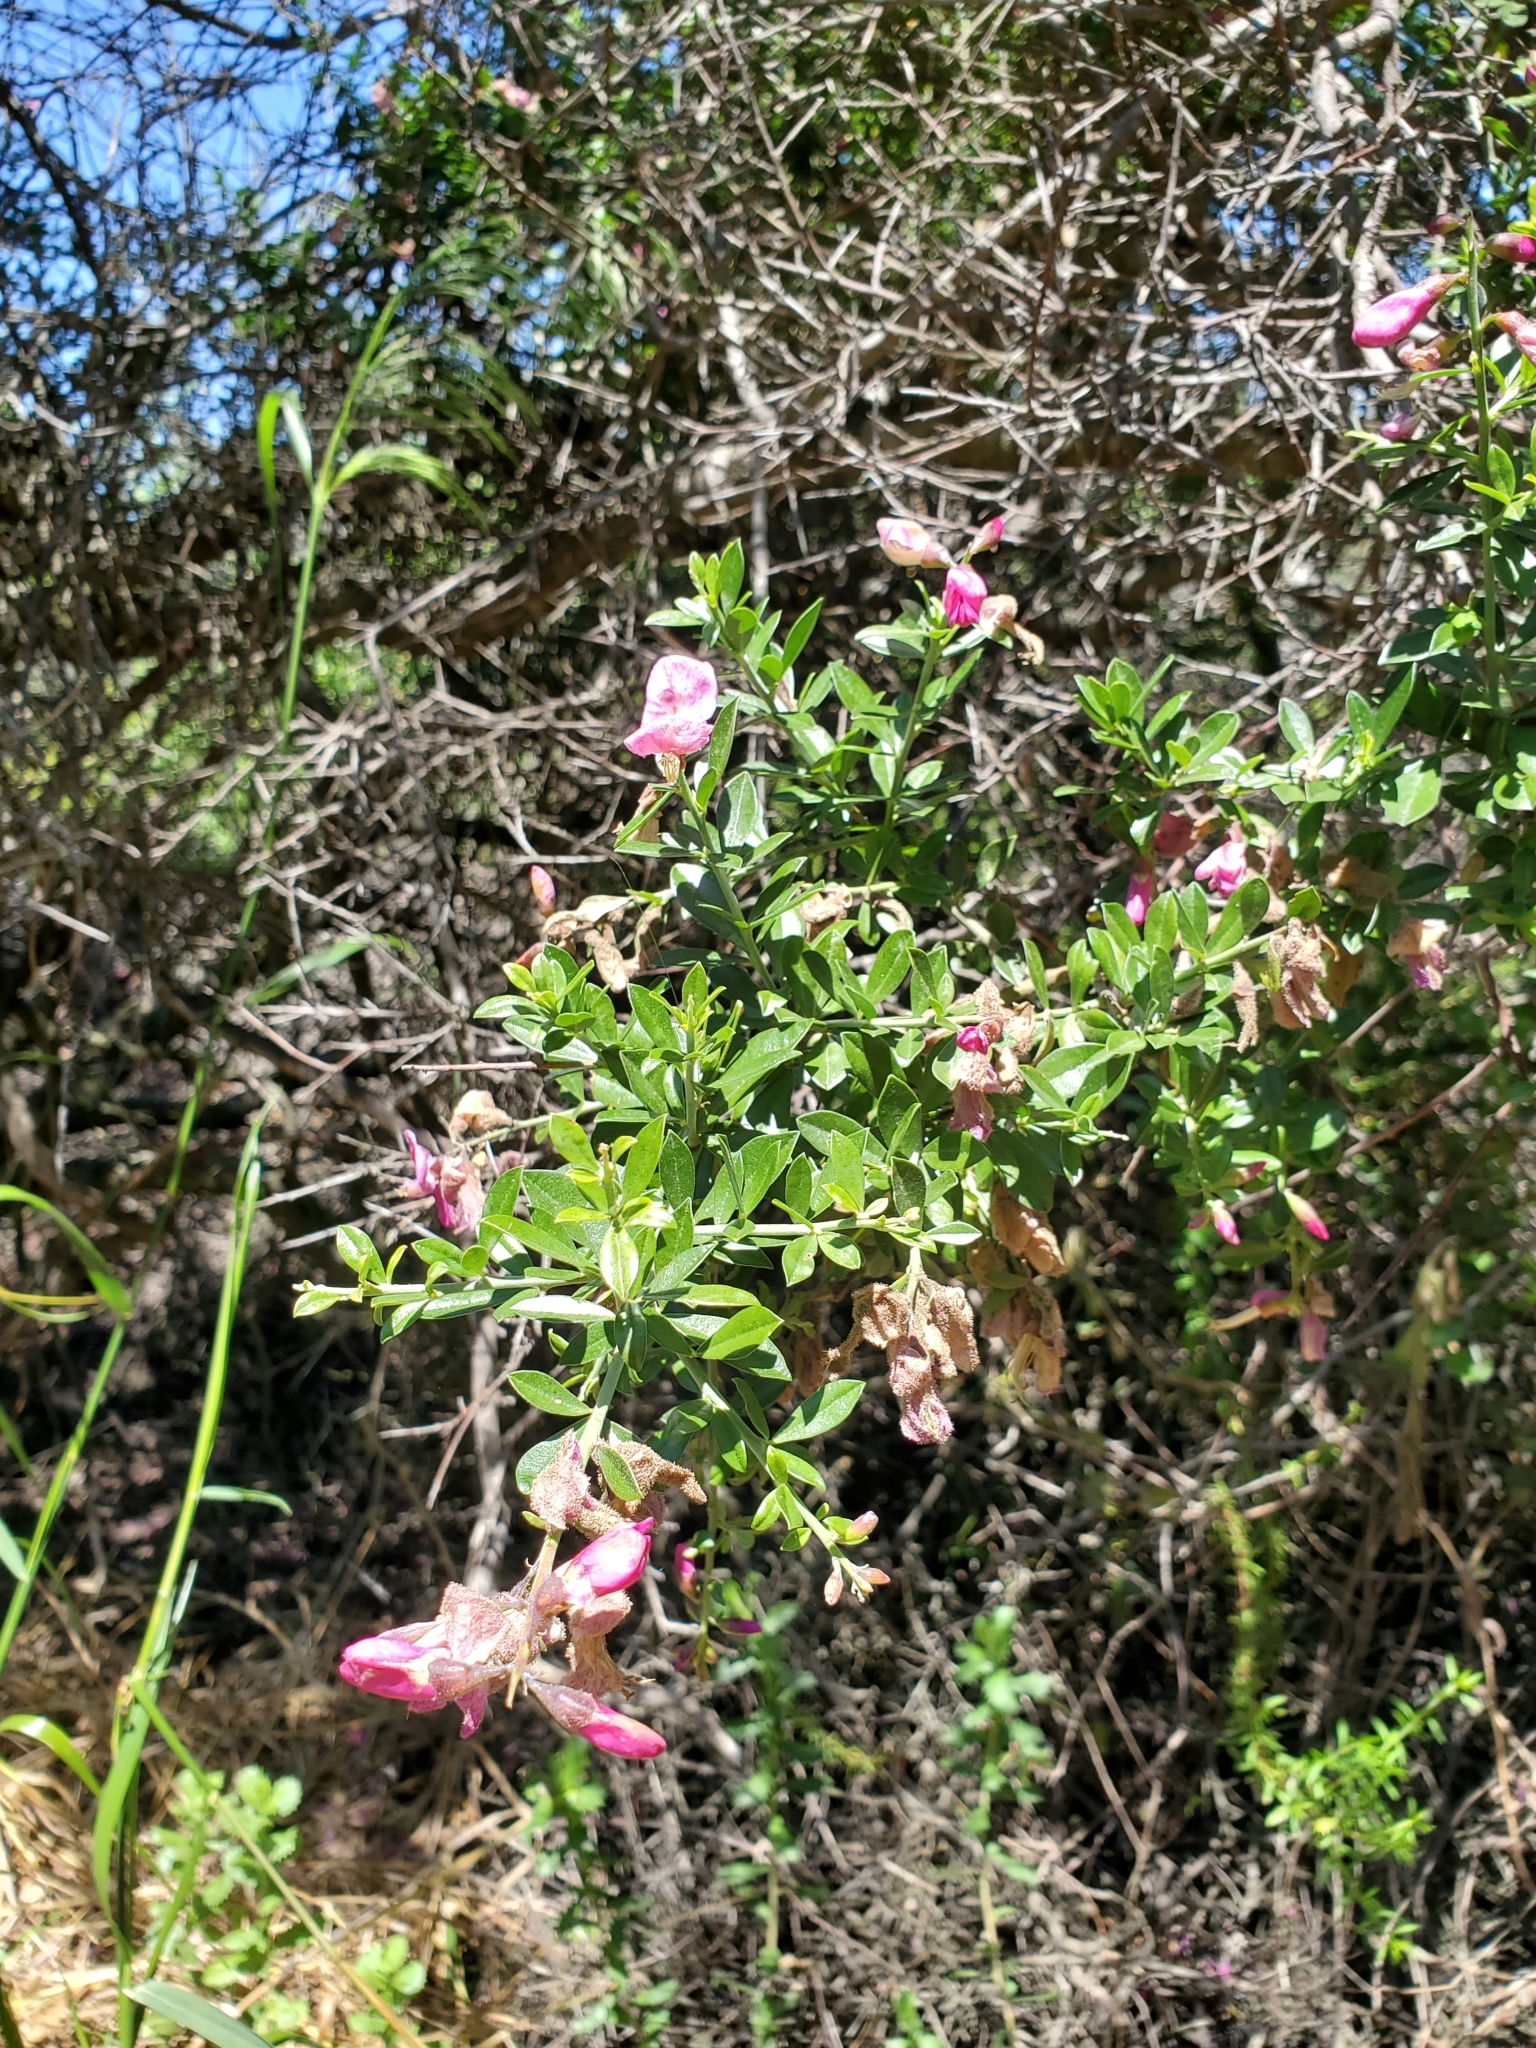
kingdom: Plantae
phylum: Tracheophyta
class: Magnoliopsida
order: Fabales
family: Fabaceae
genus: Pickeringia
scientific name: Pickeringia montana
